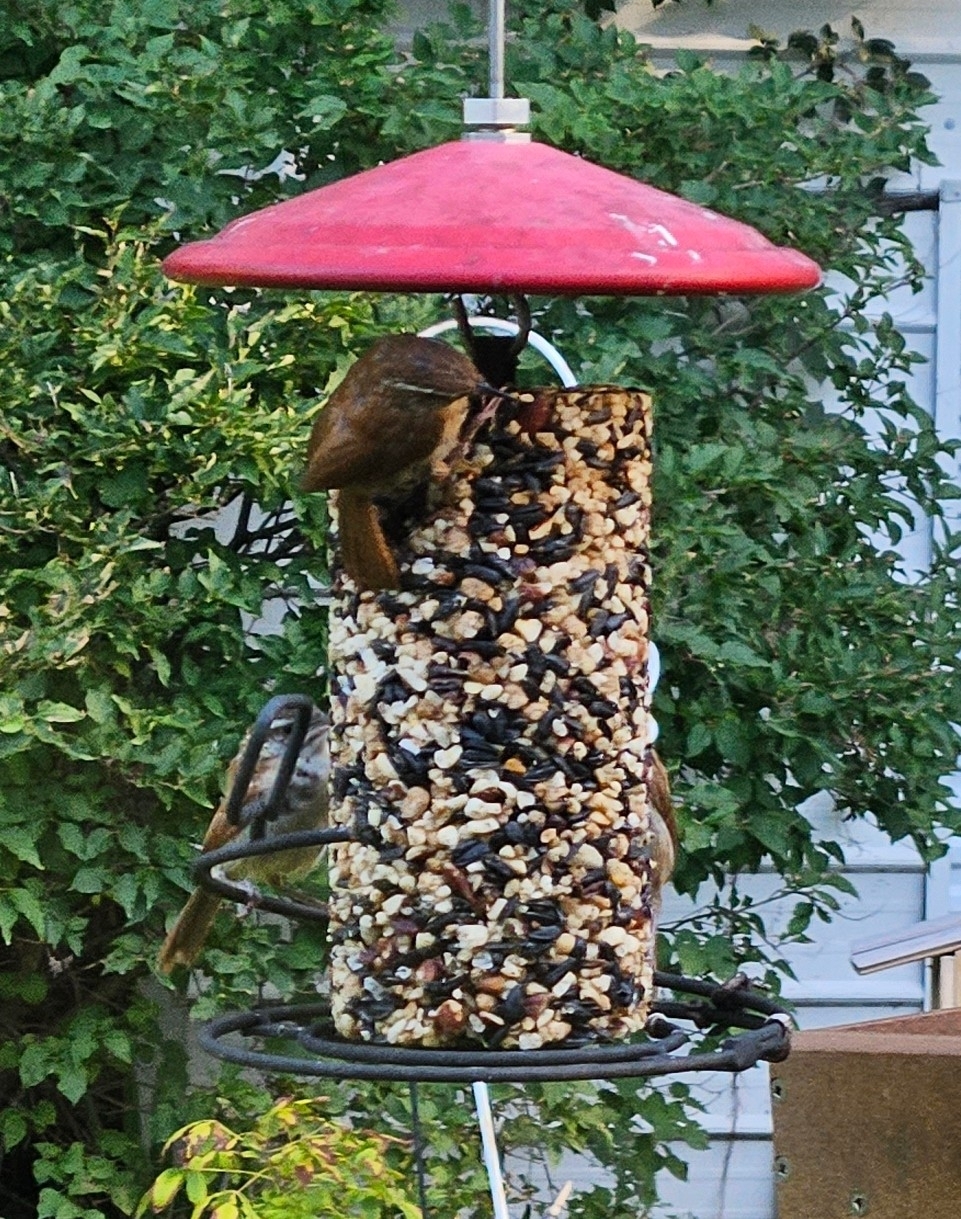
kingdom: Animalia
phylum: Chordata
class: Aves
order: Passeriformes
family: Troglodytidae
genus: Thryothorus
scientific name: Thryothorus ludovicianus
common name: Carolina wren
